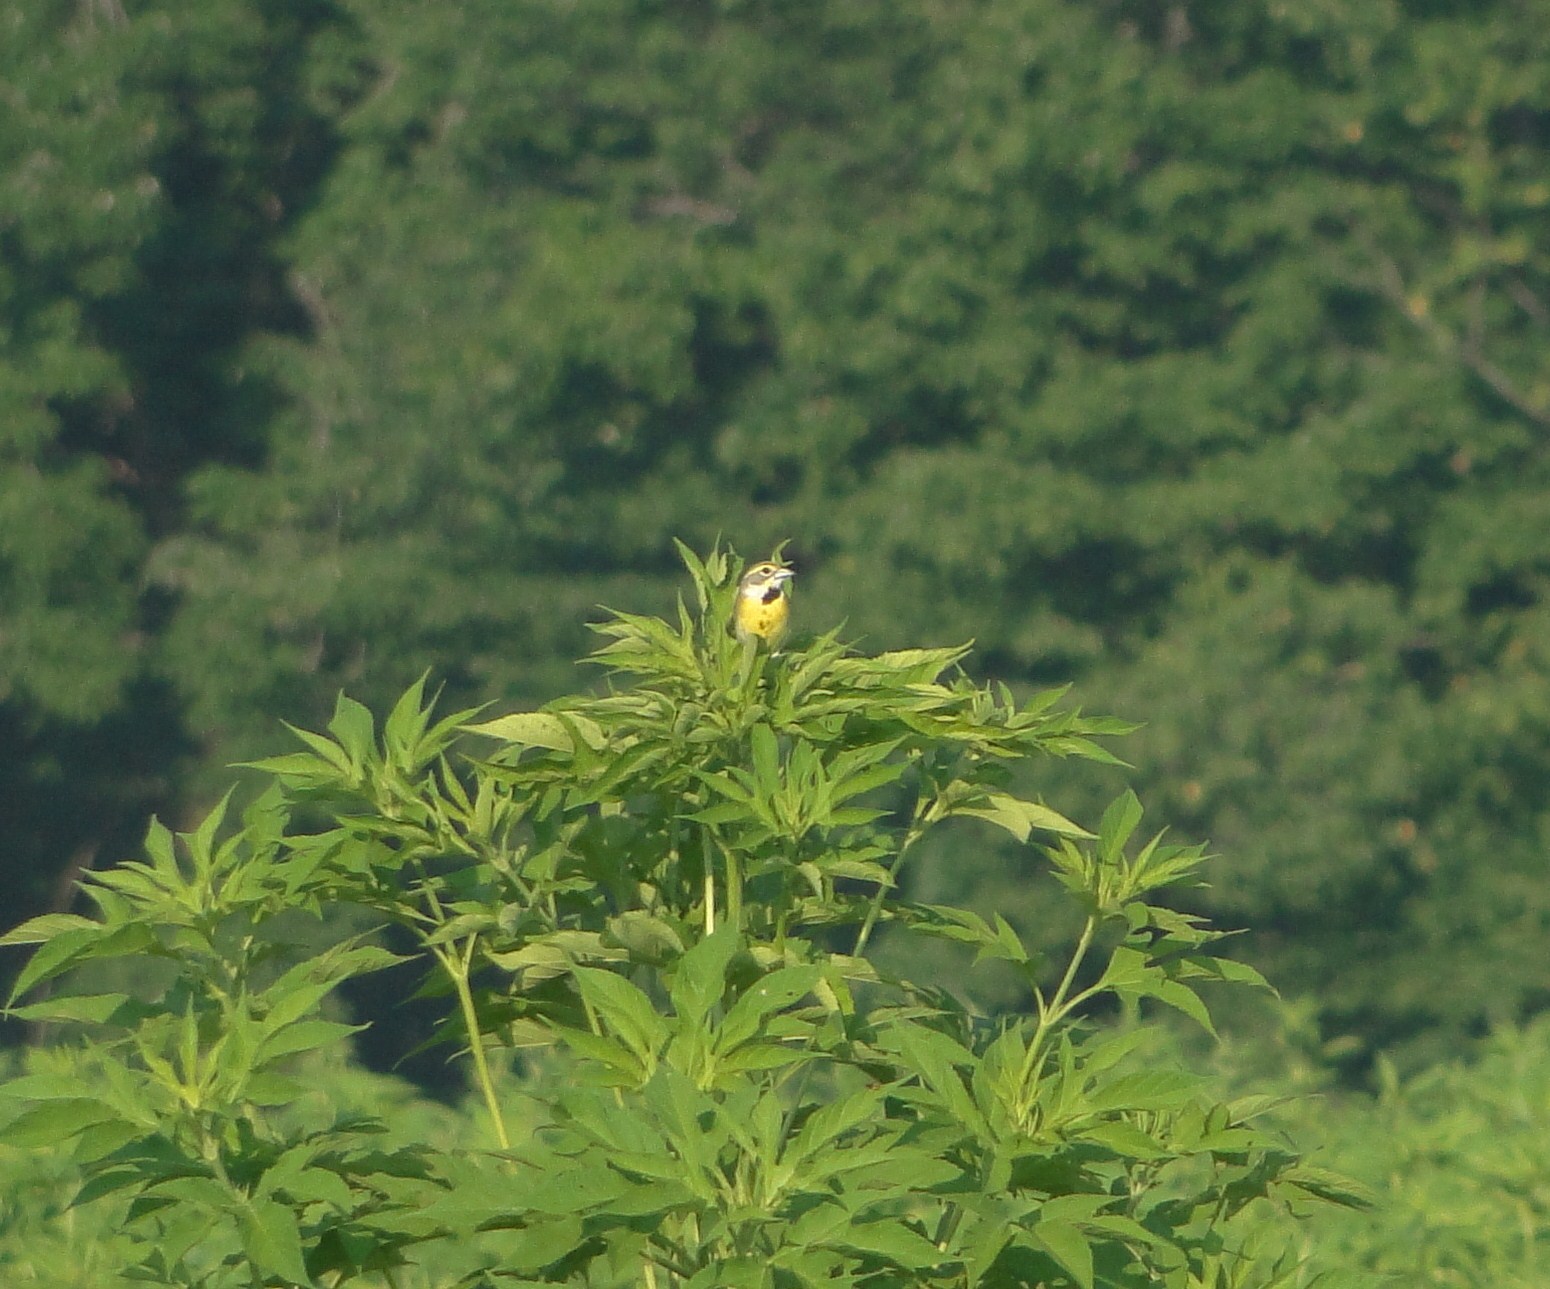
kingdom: Animalia
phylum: Chordata
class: Aves
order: Passeriformes
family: Cardinalidae
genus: Spiza
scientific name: Spiza americana
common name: Dickcissel
